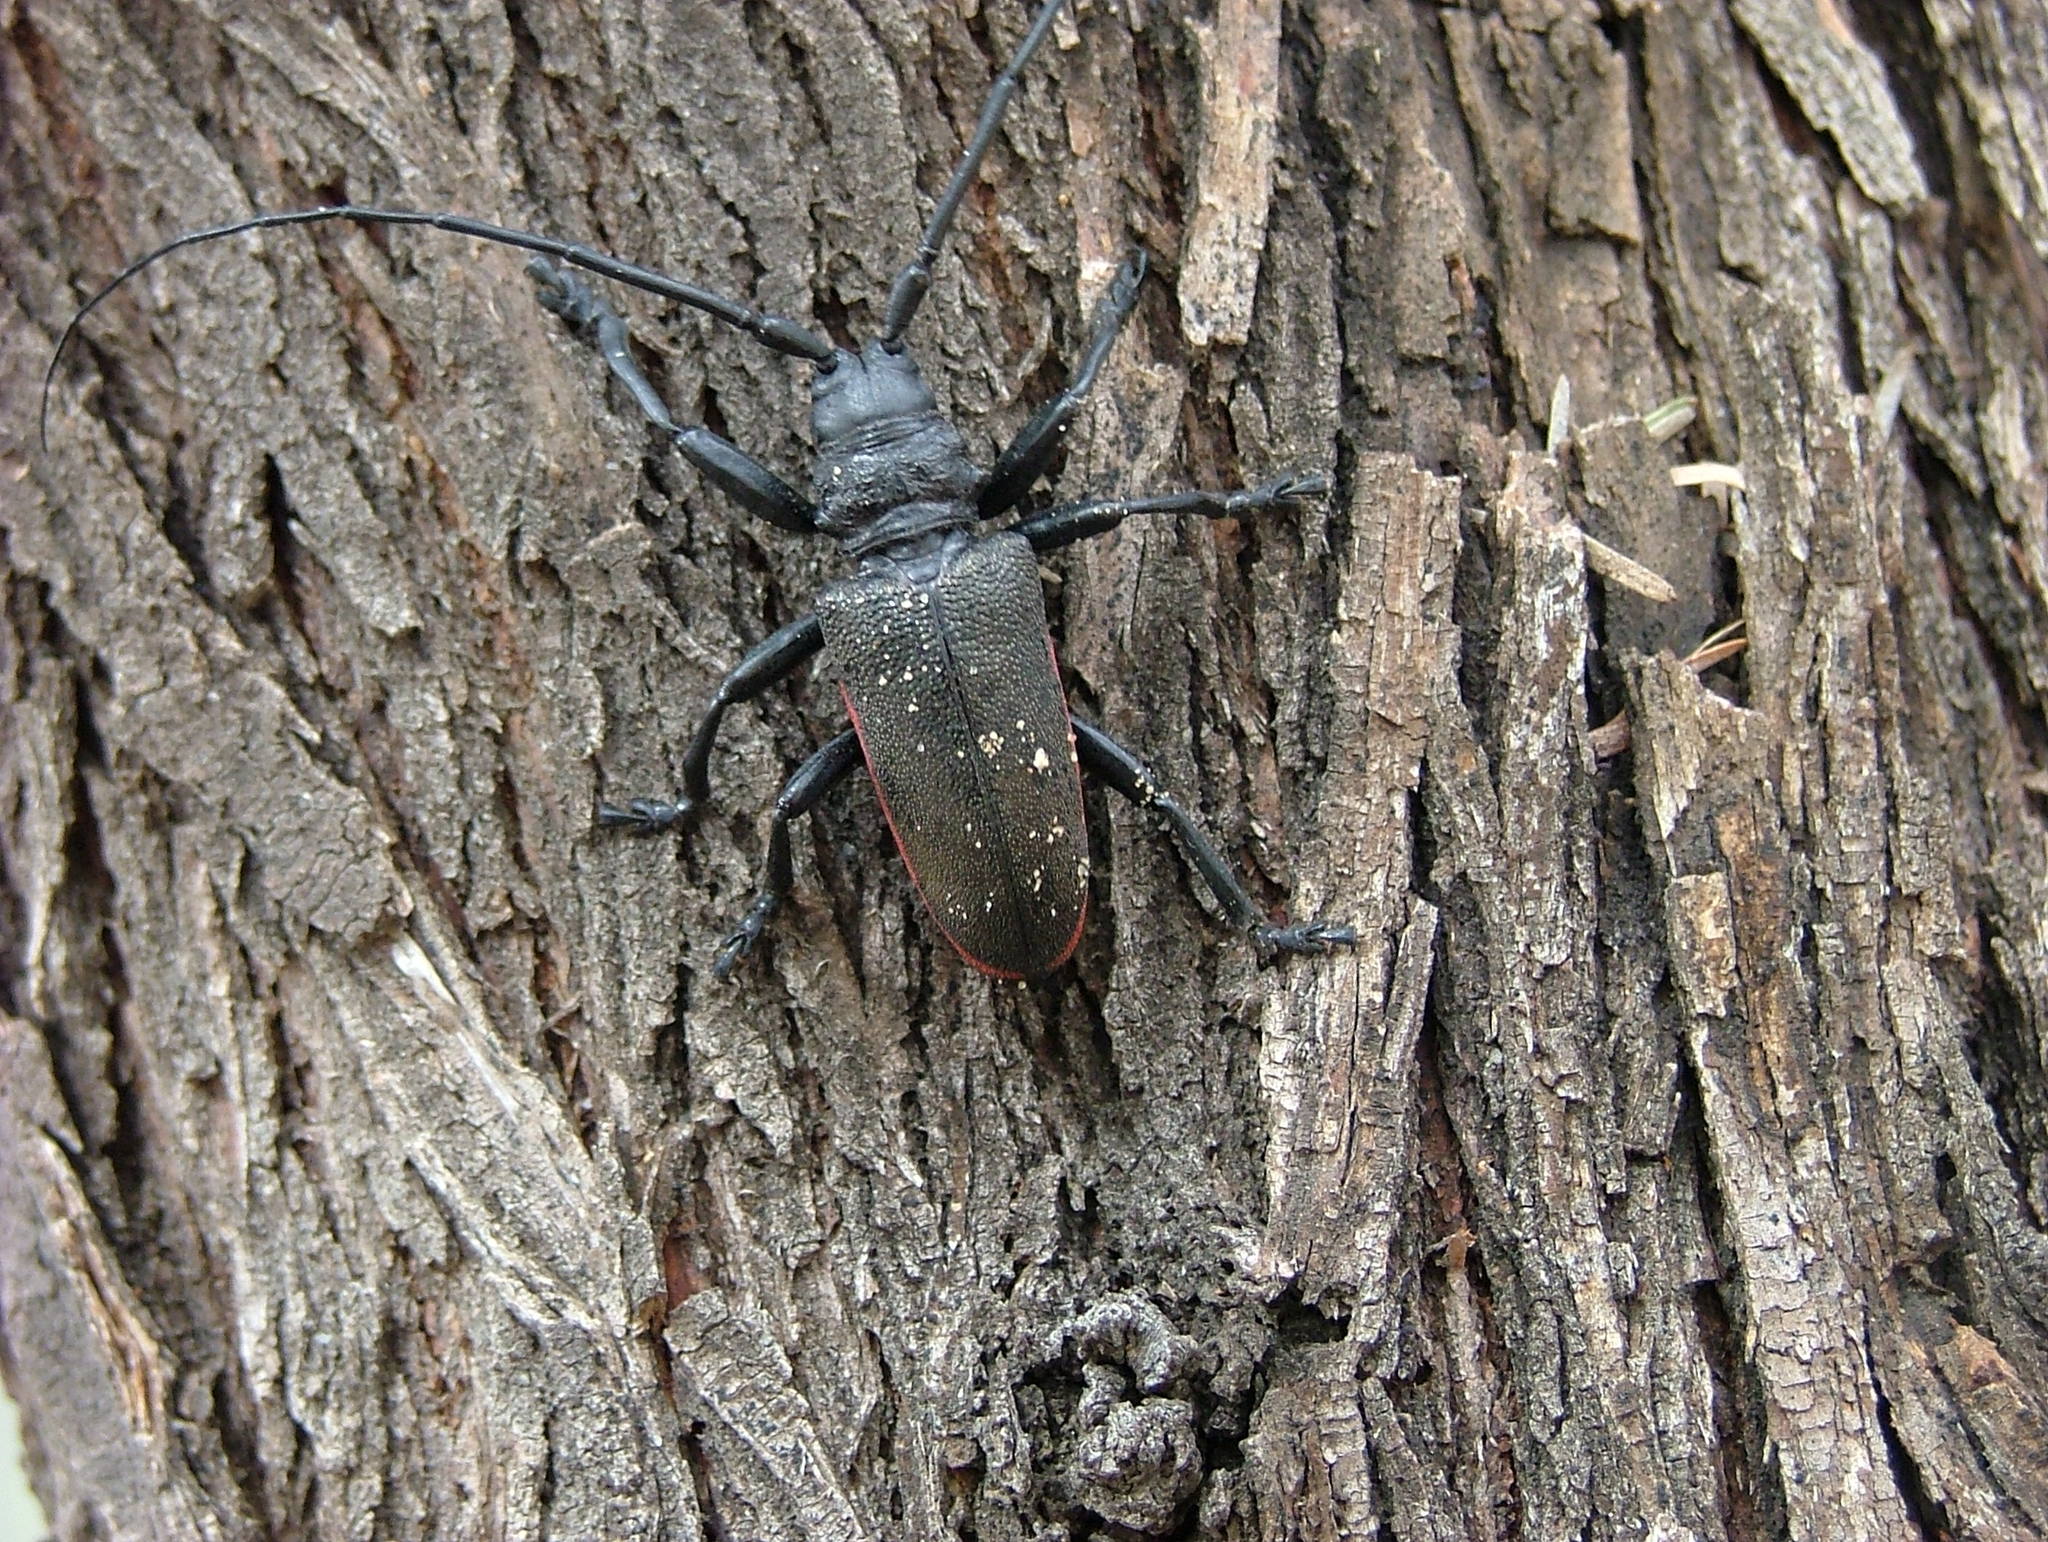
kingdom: Animalia
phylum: Arthropoda
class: Insecta
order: Coleoptera
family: Cerambycidae
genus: Ceroplesis
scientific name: Ceroplesis ferrugator
